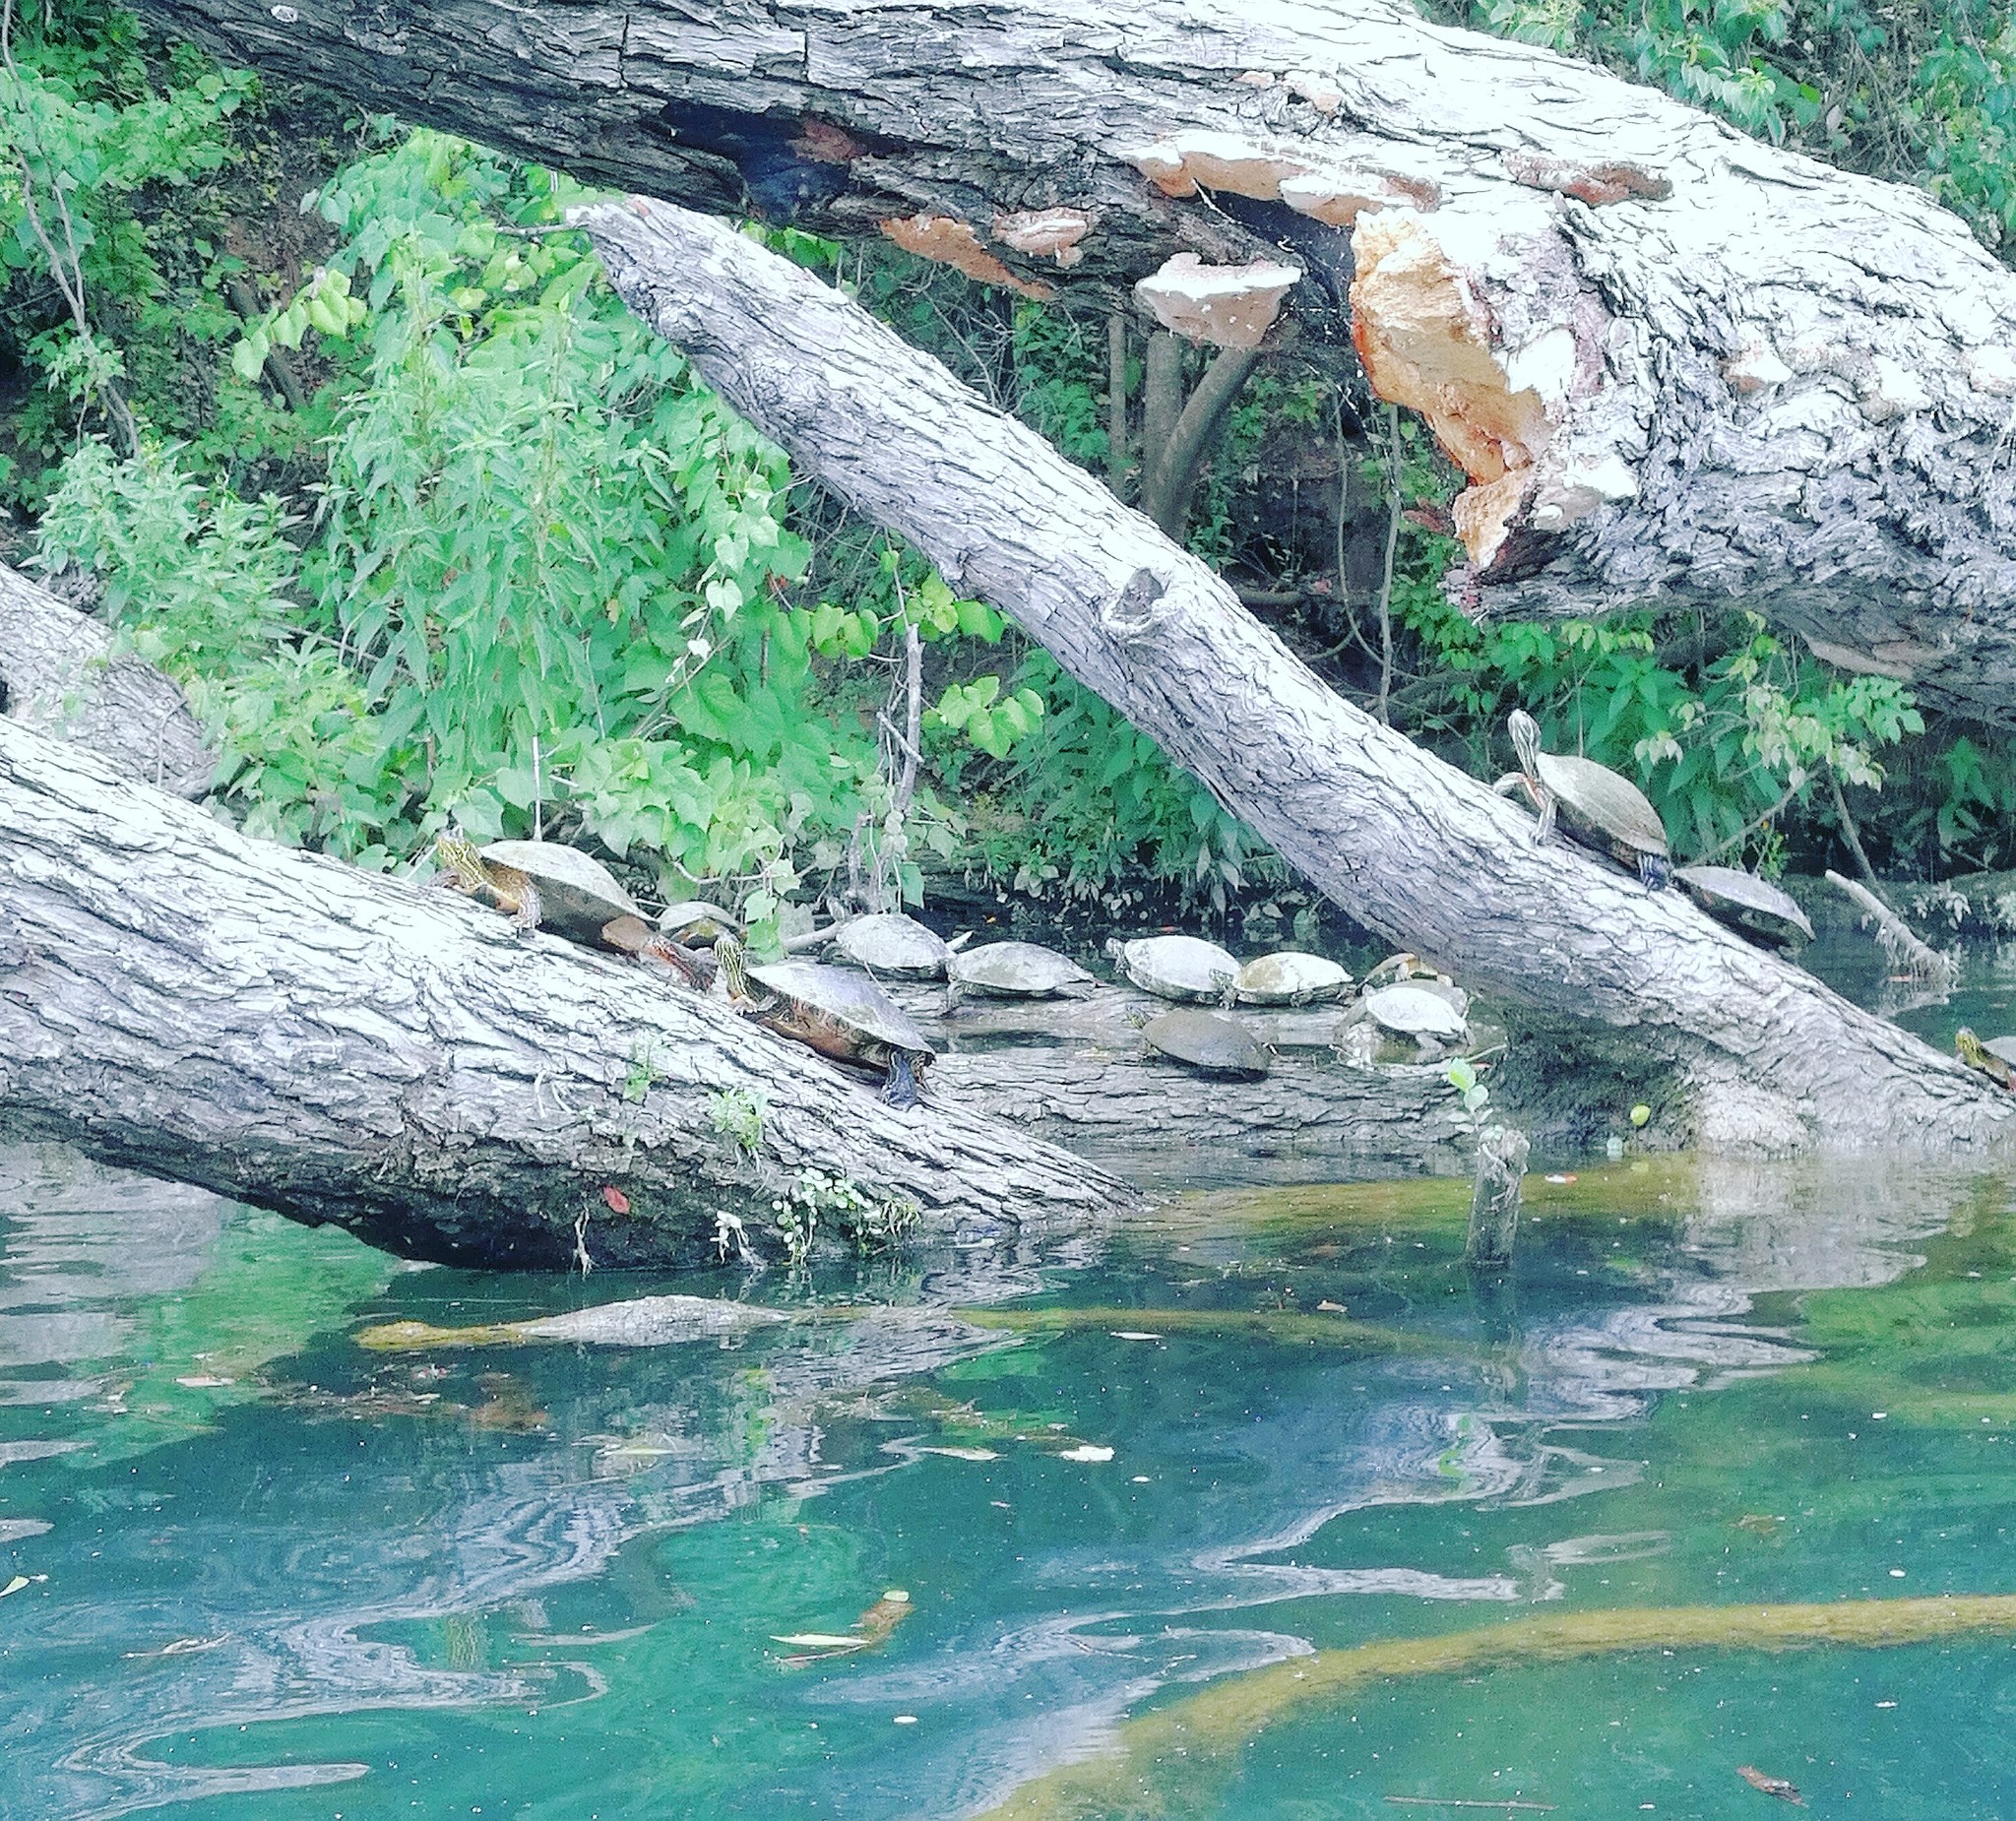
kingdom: Animalia
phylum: Chordata
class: Testudines
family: Emydidae
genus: Trachemys
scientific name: Trachemys scripta
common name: Slider
